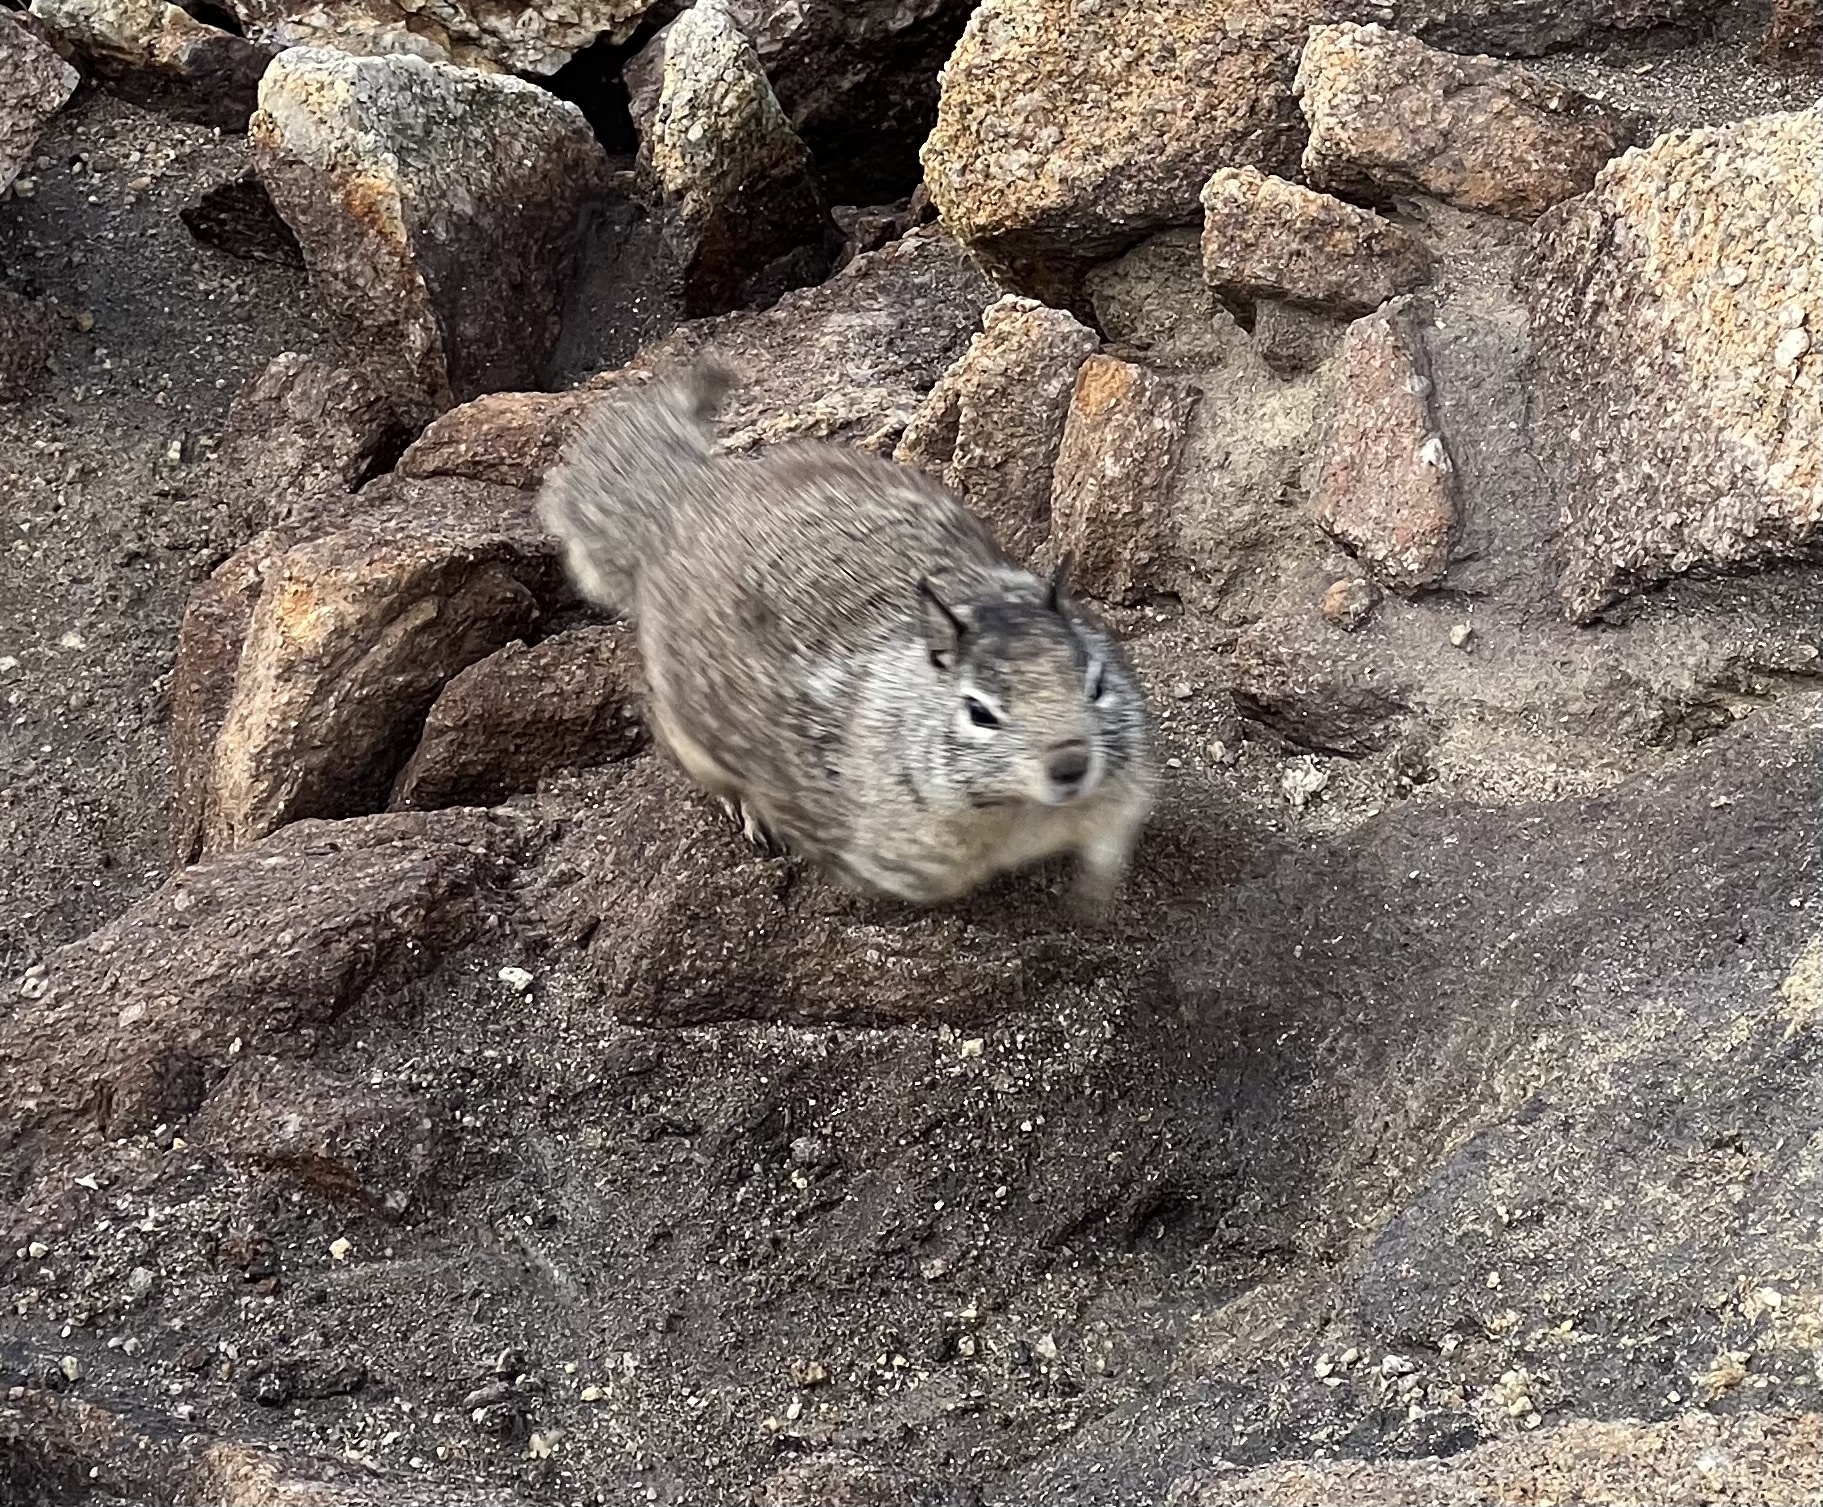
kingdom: Animalia
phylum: Chordata
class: Mammalia
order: Rodentia
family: Sciuridae
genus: Otospermophilus
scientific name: Otospermophilus beecheyi
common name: California ground squirrel
